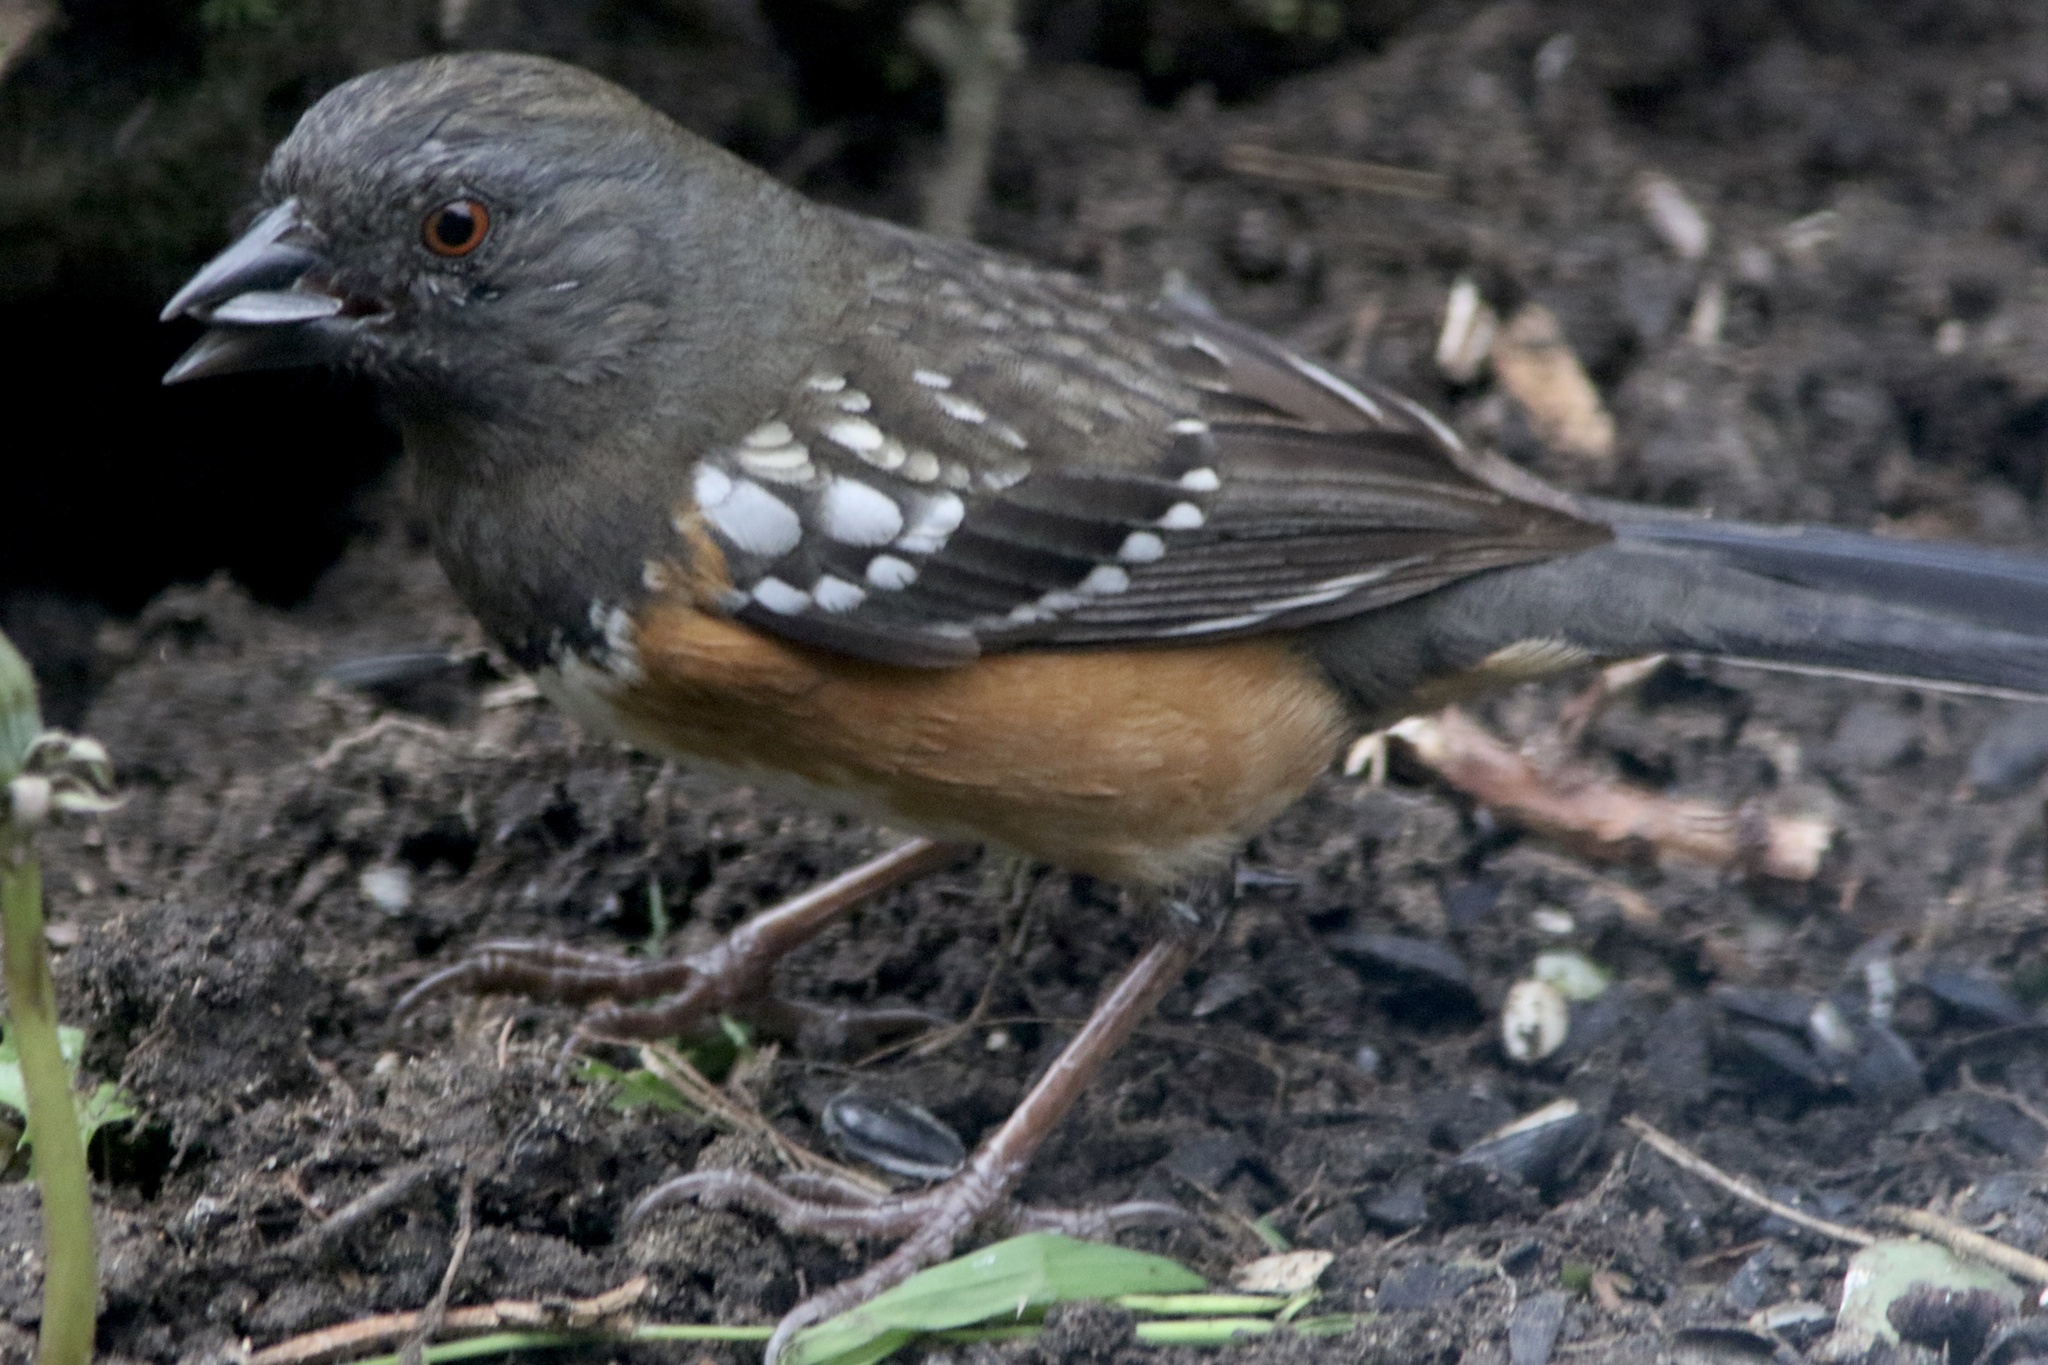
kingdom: Animalia
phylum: Chordata
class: Aves
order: Passeriformes
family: Passerellidae
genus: Pipilo
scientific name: Pipilo maculatus
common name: Spotted towhee
